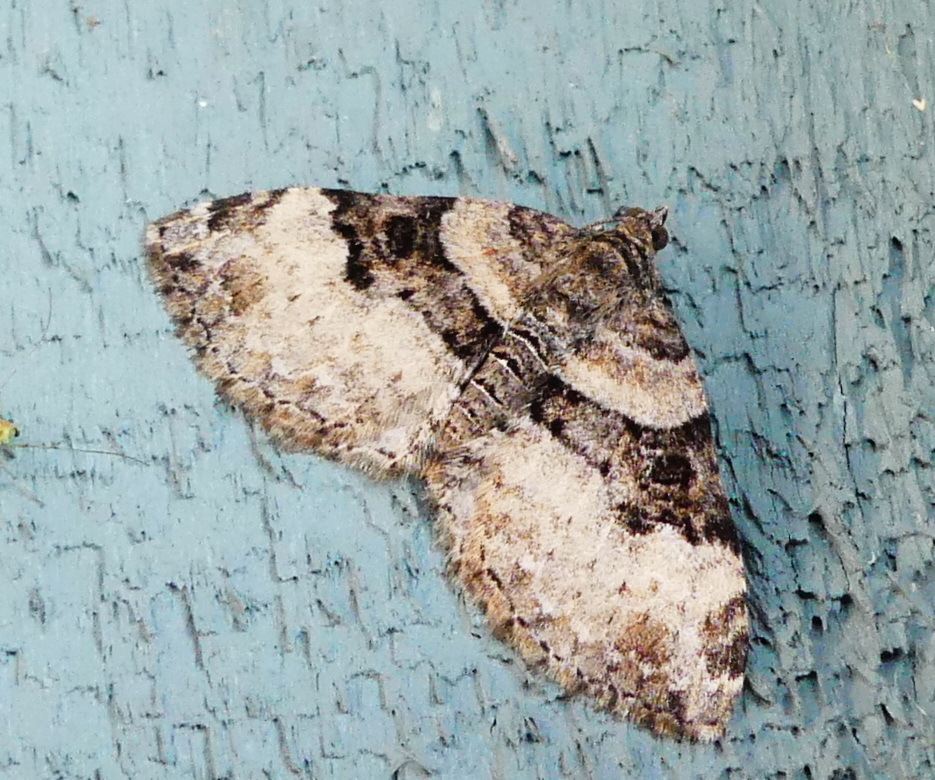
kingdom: Animalia
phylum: Arthropoda
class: Insecta
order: Lepidoptera
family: Geometridae
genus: Xanthorhoe
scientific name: Xanthorhoe lacustrata
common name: Toothed brown carpet
